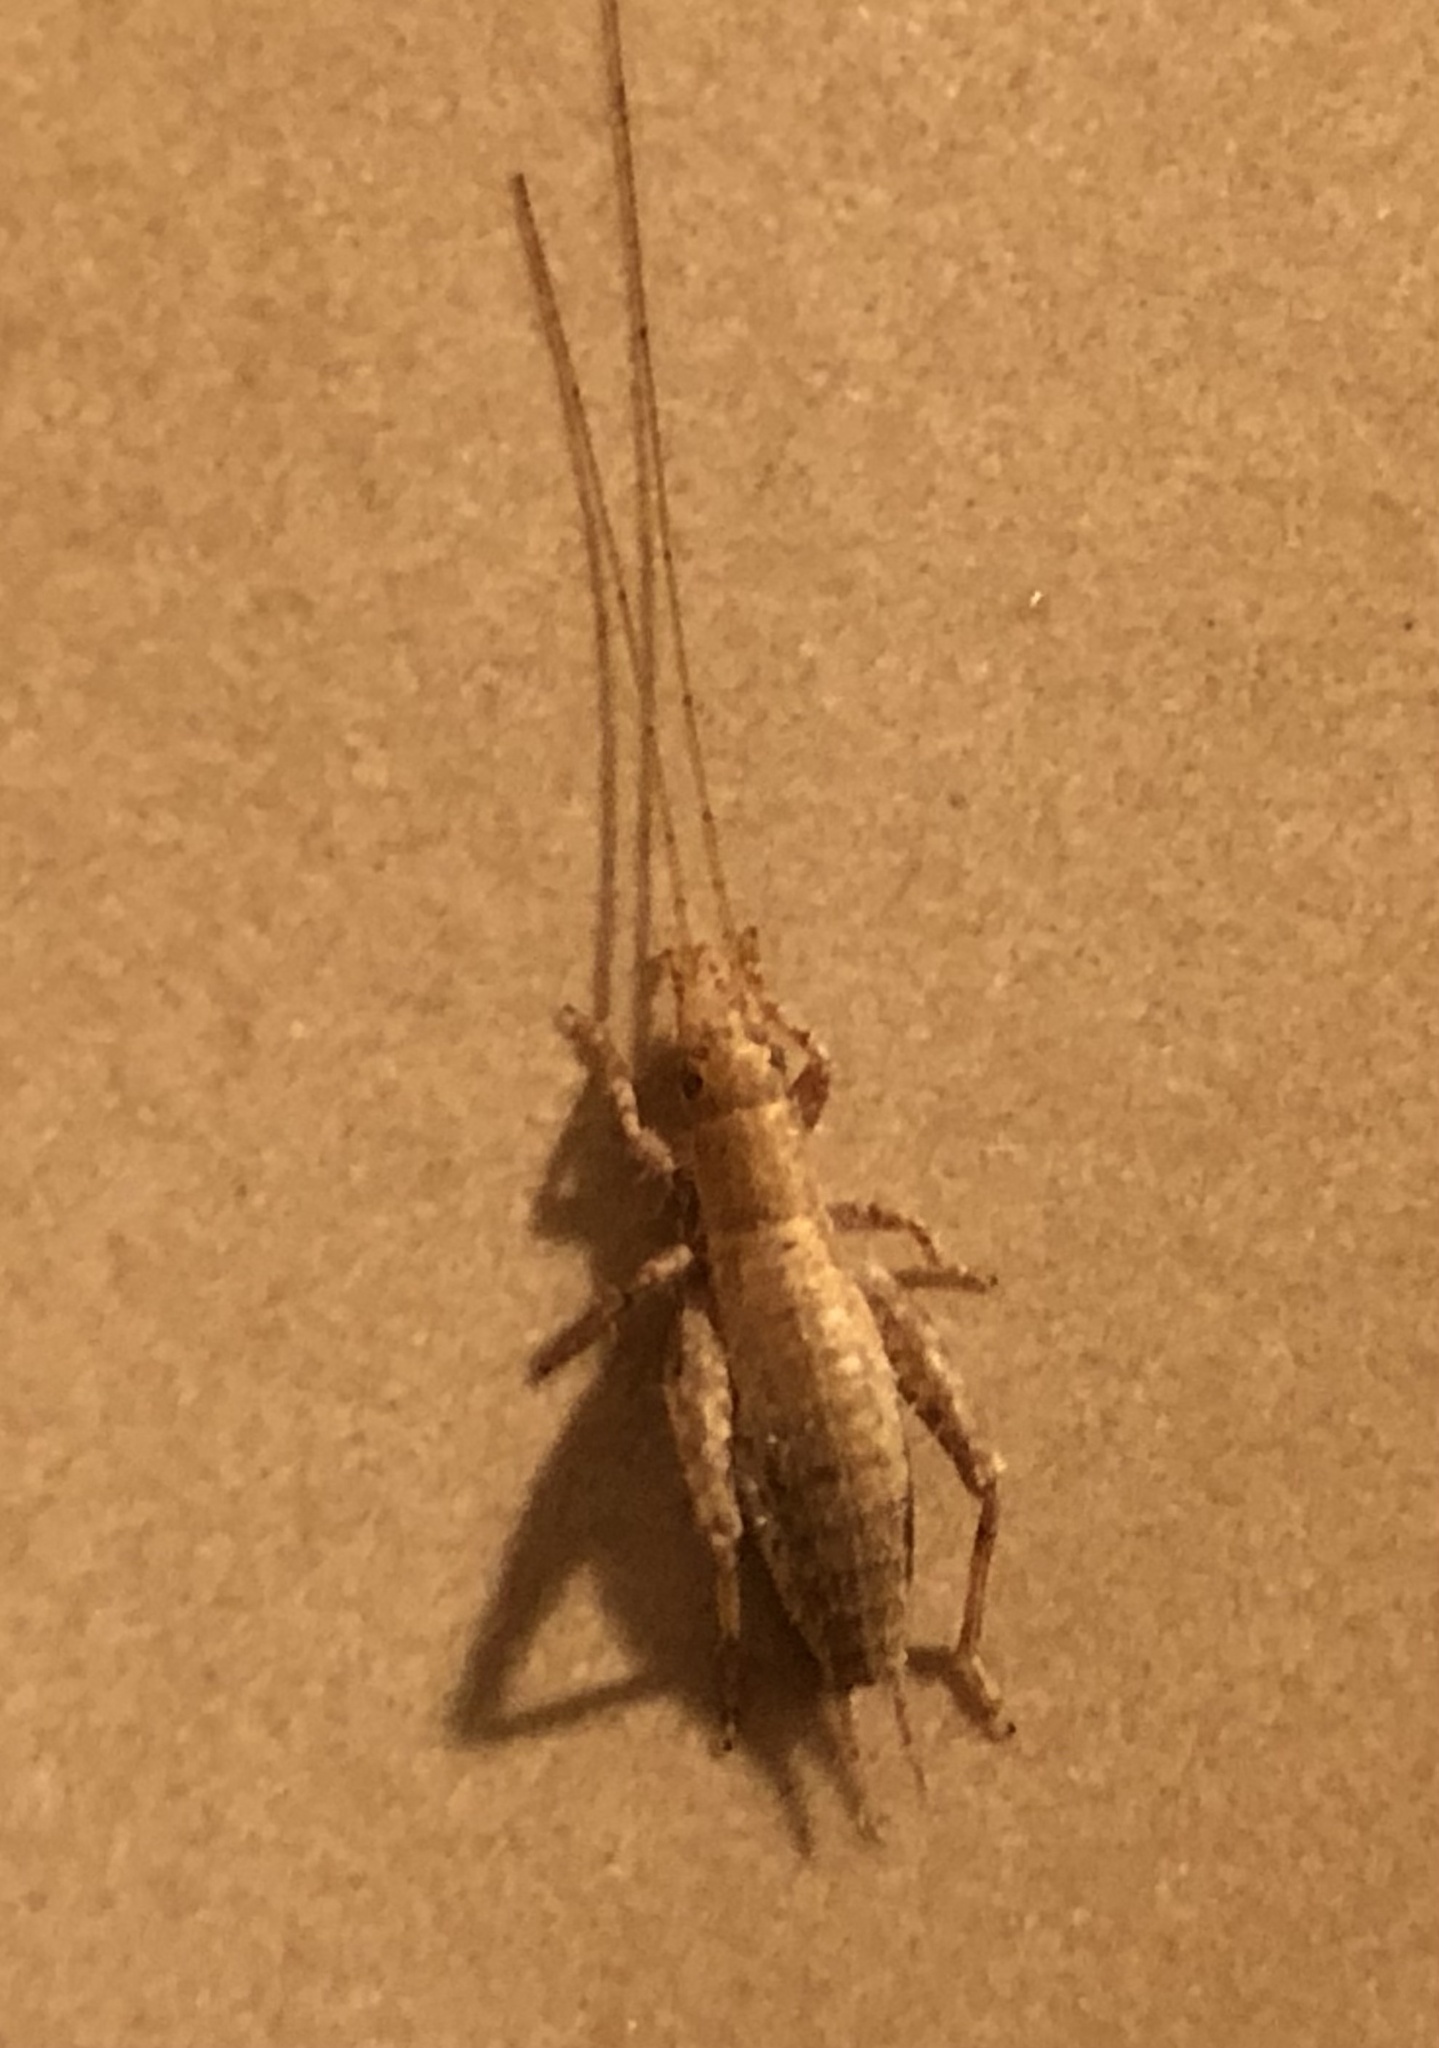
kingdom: Animalia
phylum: Arthropoda
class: Insecta
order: Orthoptera
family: Mogoplistidae
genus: Arachnocephalus
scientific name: Arachnocephalus vestitus
